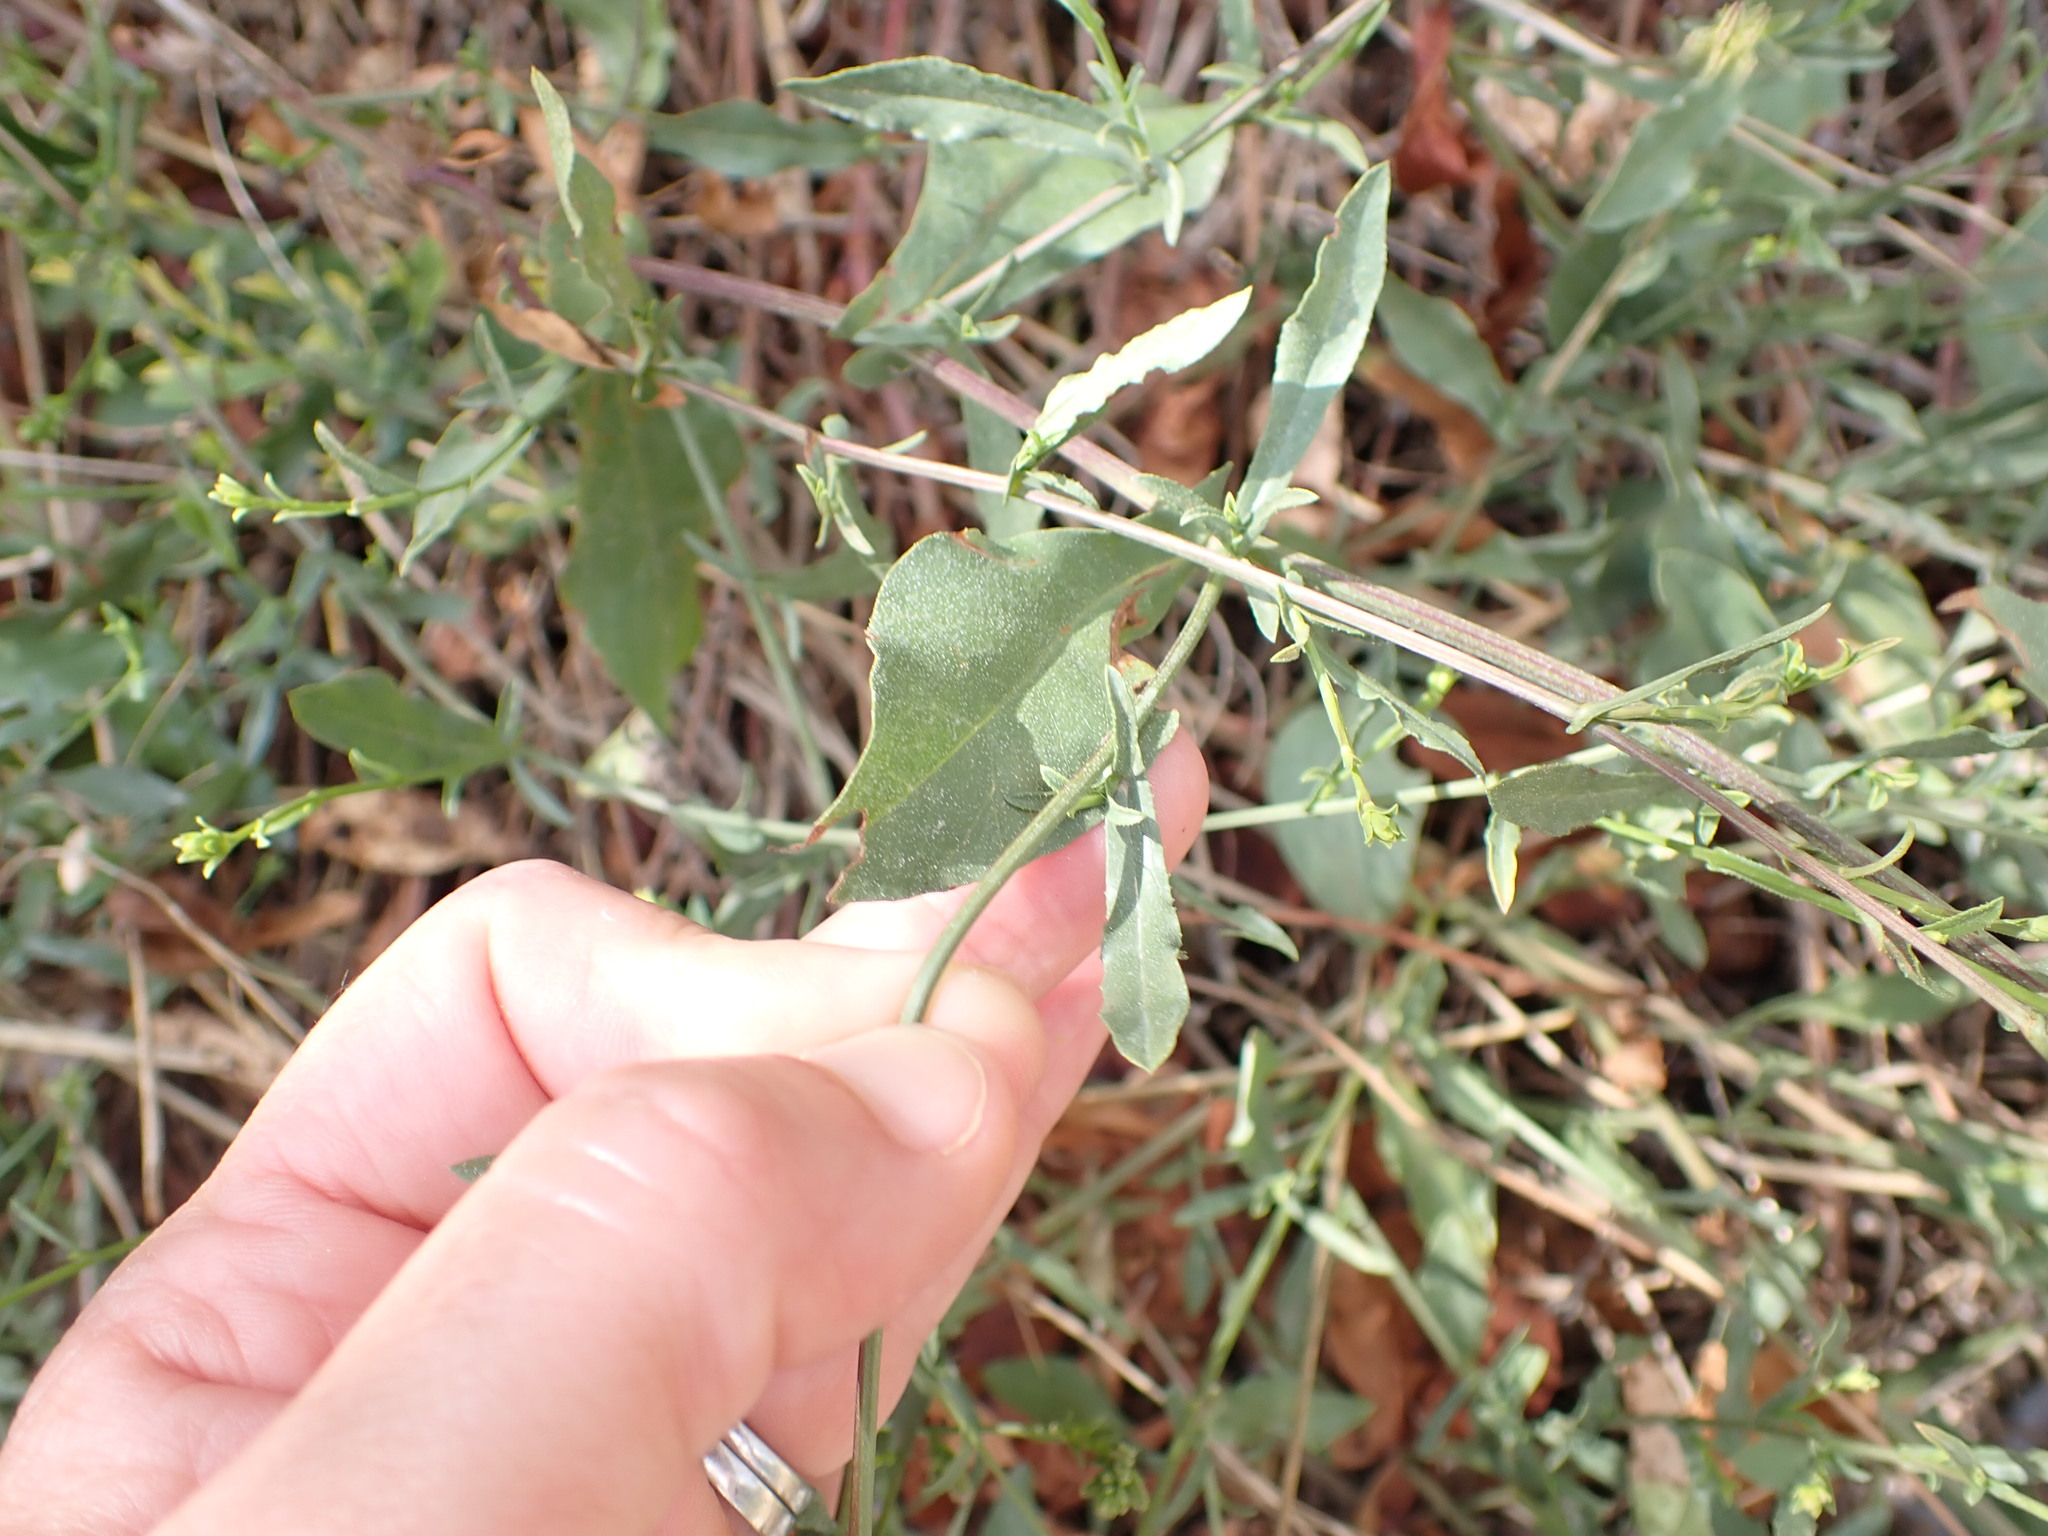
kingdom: Plantae
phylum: Tracheophyta
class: Magnoliopsida
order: Caryophyllales
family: Plumbaginaceae
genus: Plumbago
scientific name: Plumbago europaea
